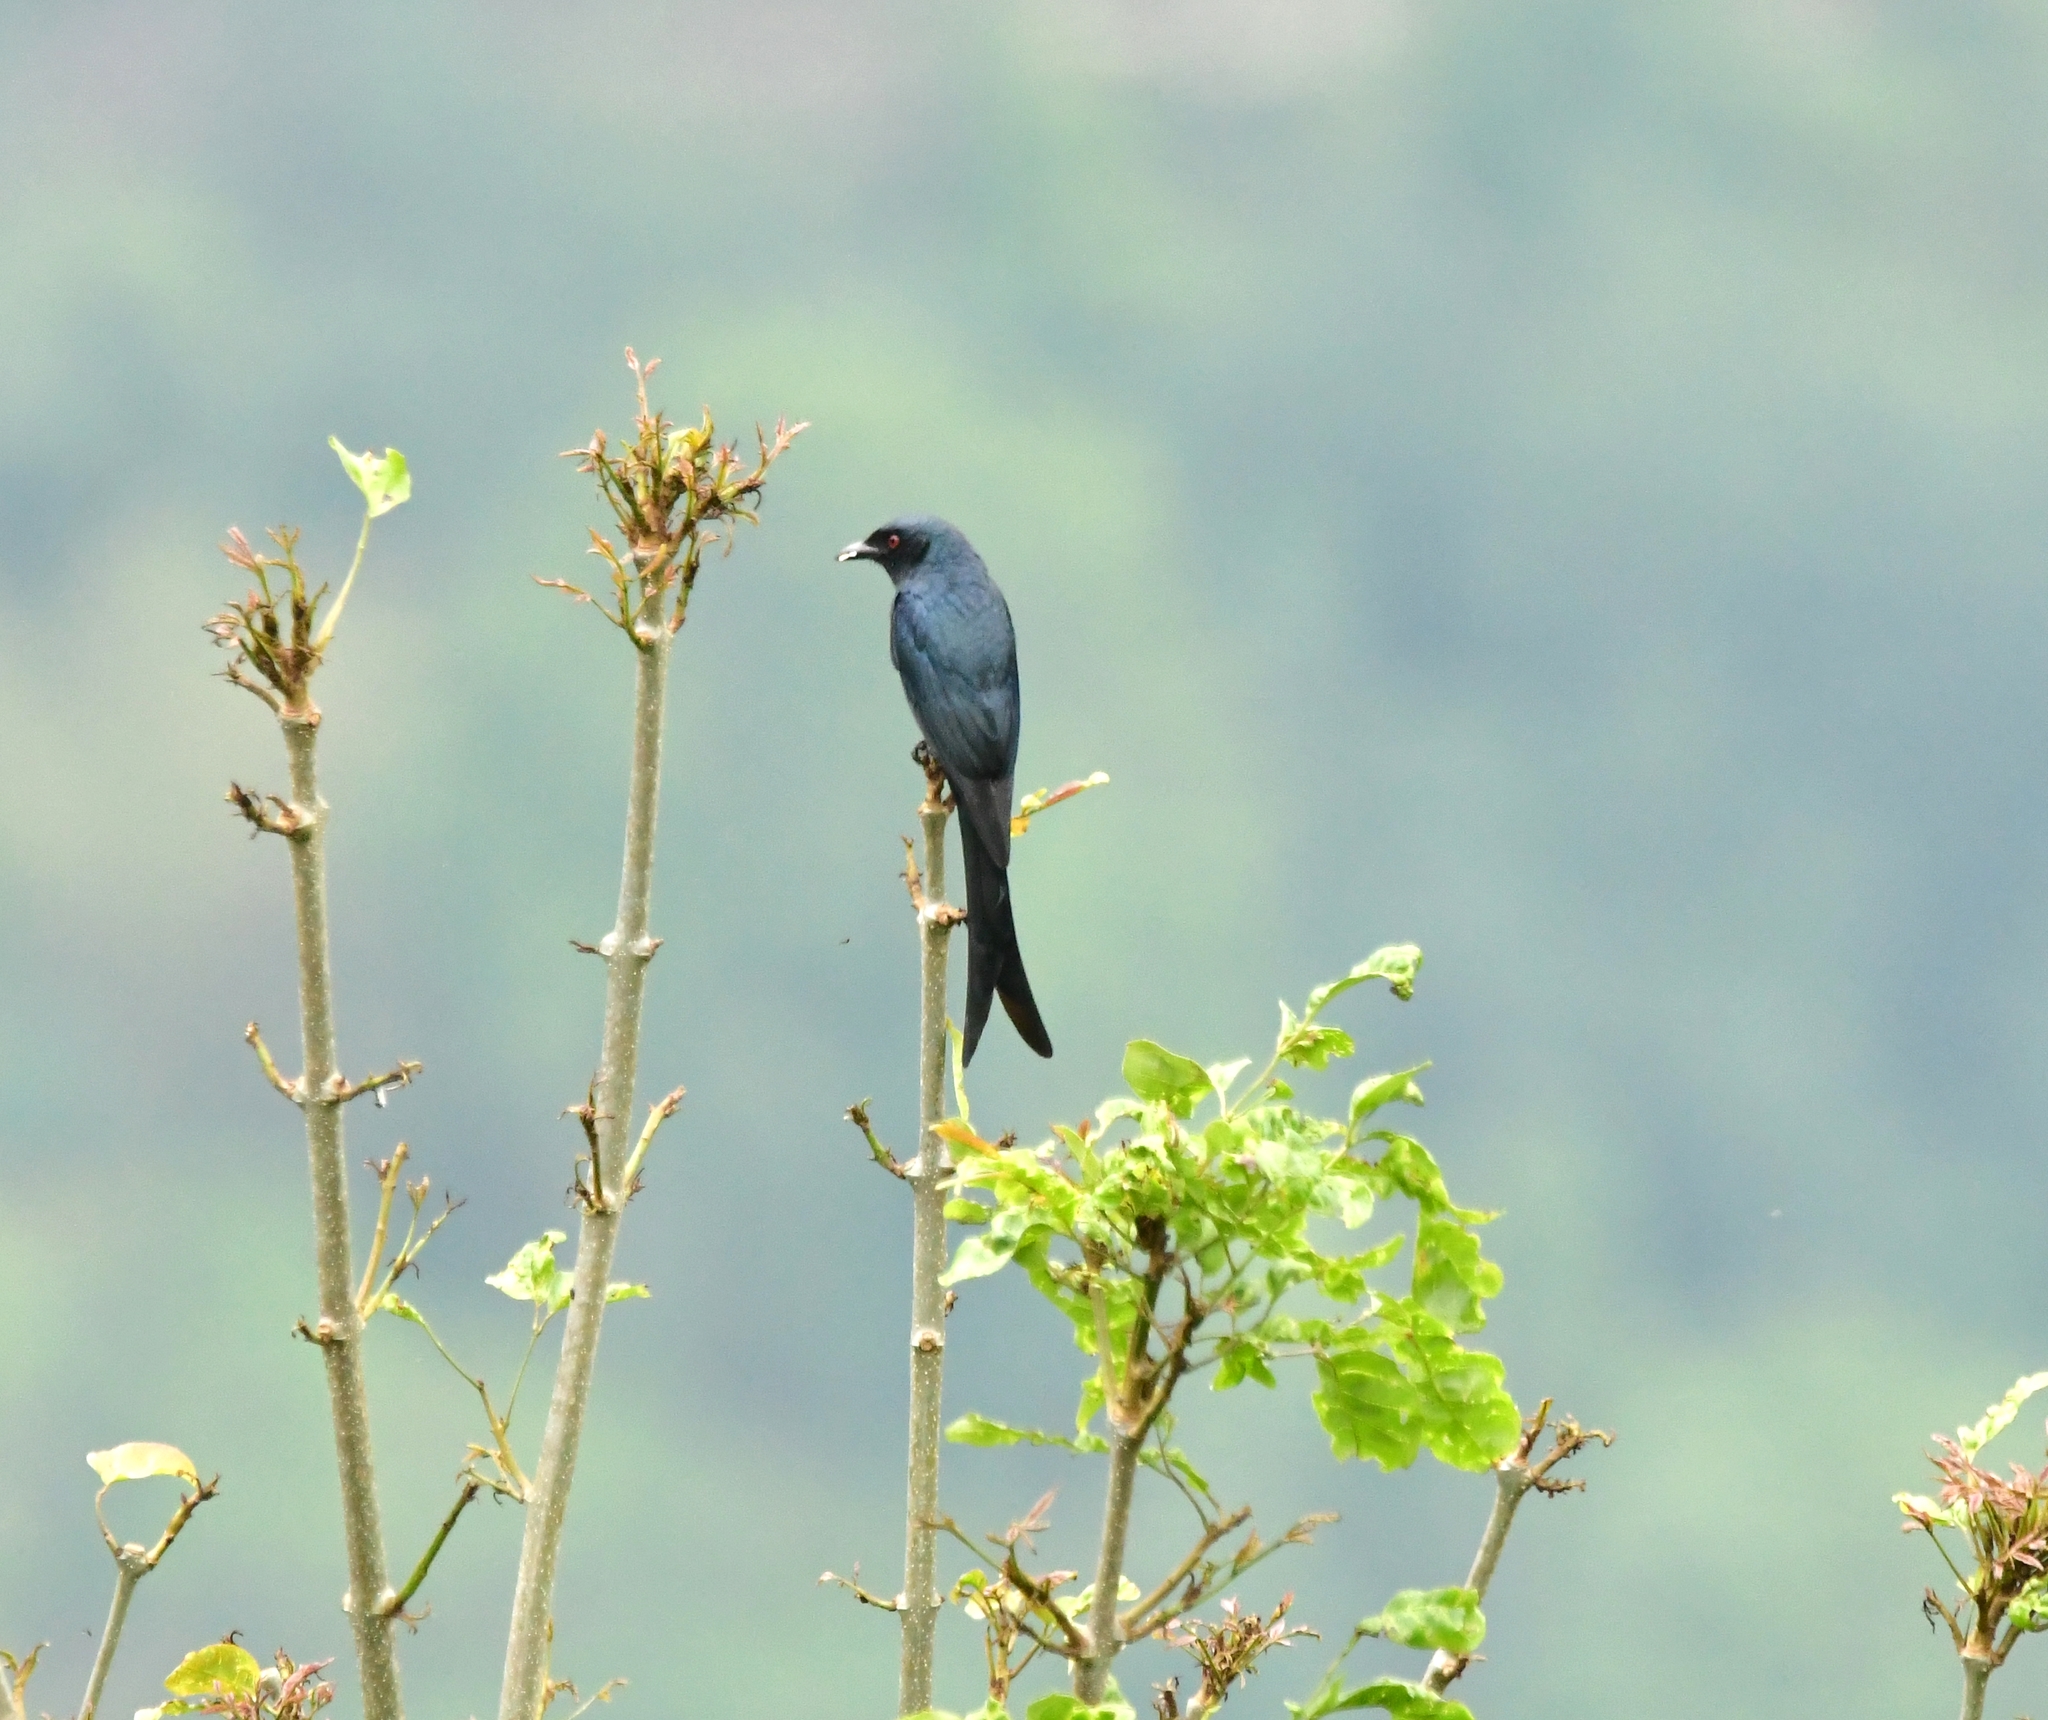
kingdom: Animalia
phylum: Chordata
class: Aves
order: Passeriformes
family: Dicruridae
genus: Dicrurus
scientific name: Dicrurus leucophaeus
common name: Ashy drongo
